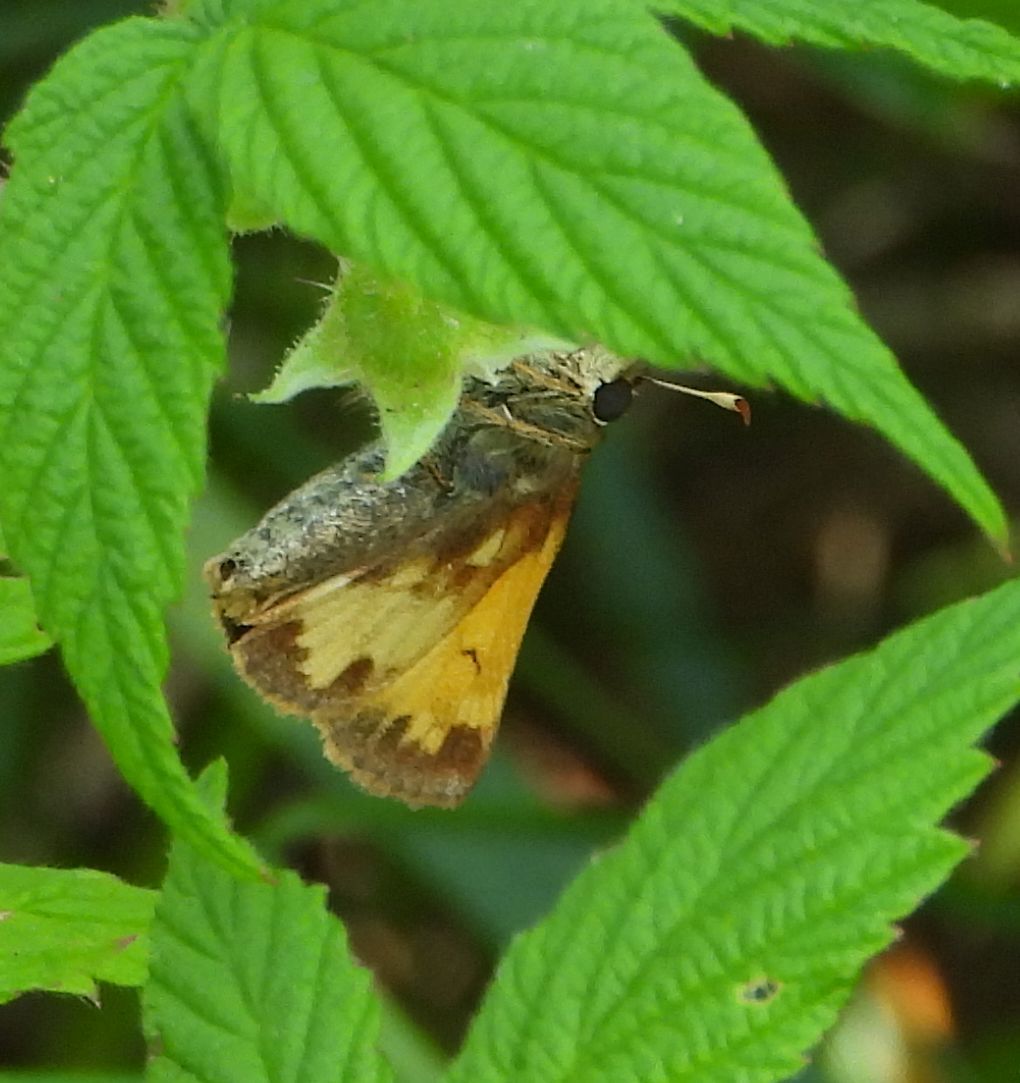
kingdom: Animalia
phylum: Arthropoda
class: Insecta
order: Lepidoptera
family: Hesperiidae
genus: Lon
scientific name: Lon hobomok
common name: Hobomok skipper
